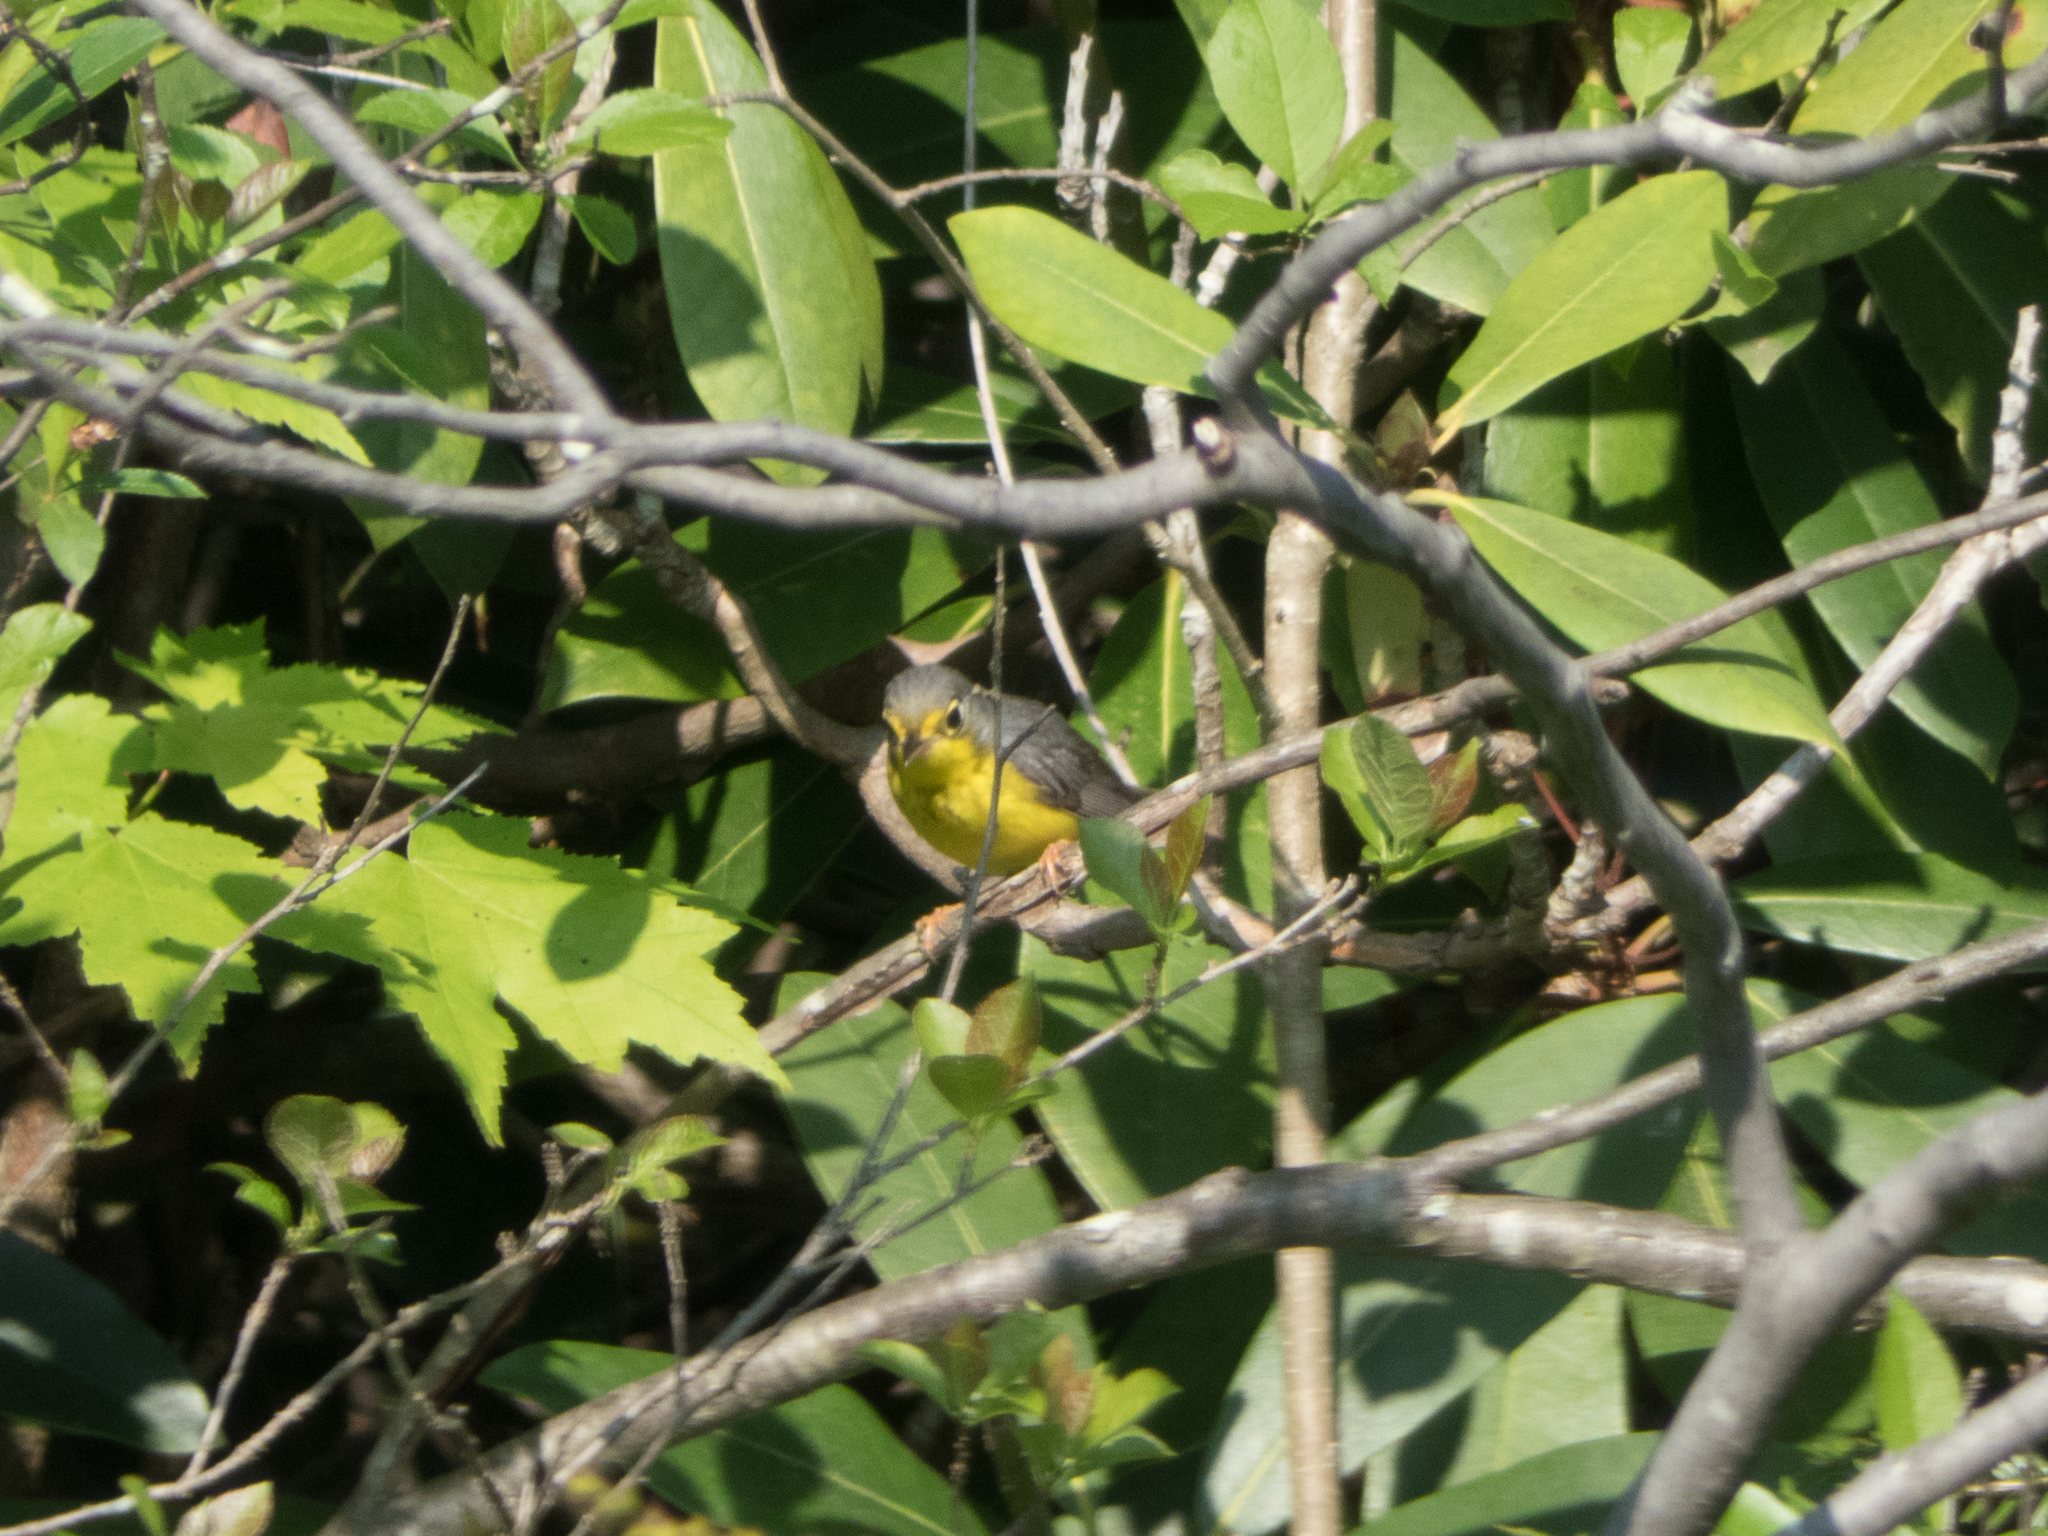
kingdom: Animalia
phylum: Chordata
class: Aves
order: Passeriformes
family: Parulidae
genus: Cardellina
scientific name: Cardellina canadensis
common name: Canada warbler
